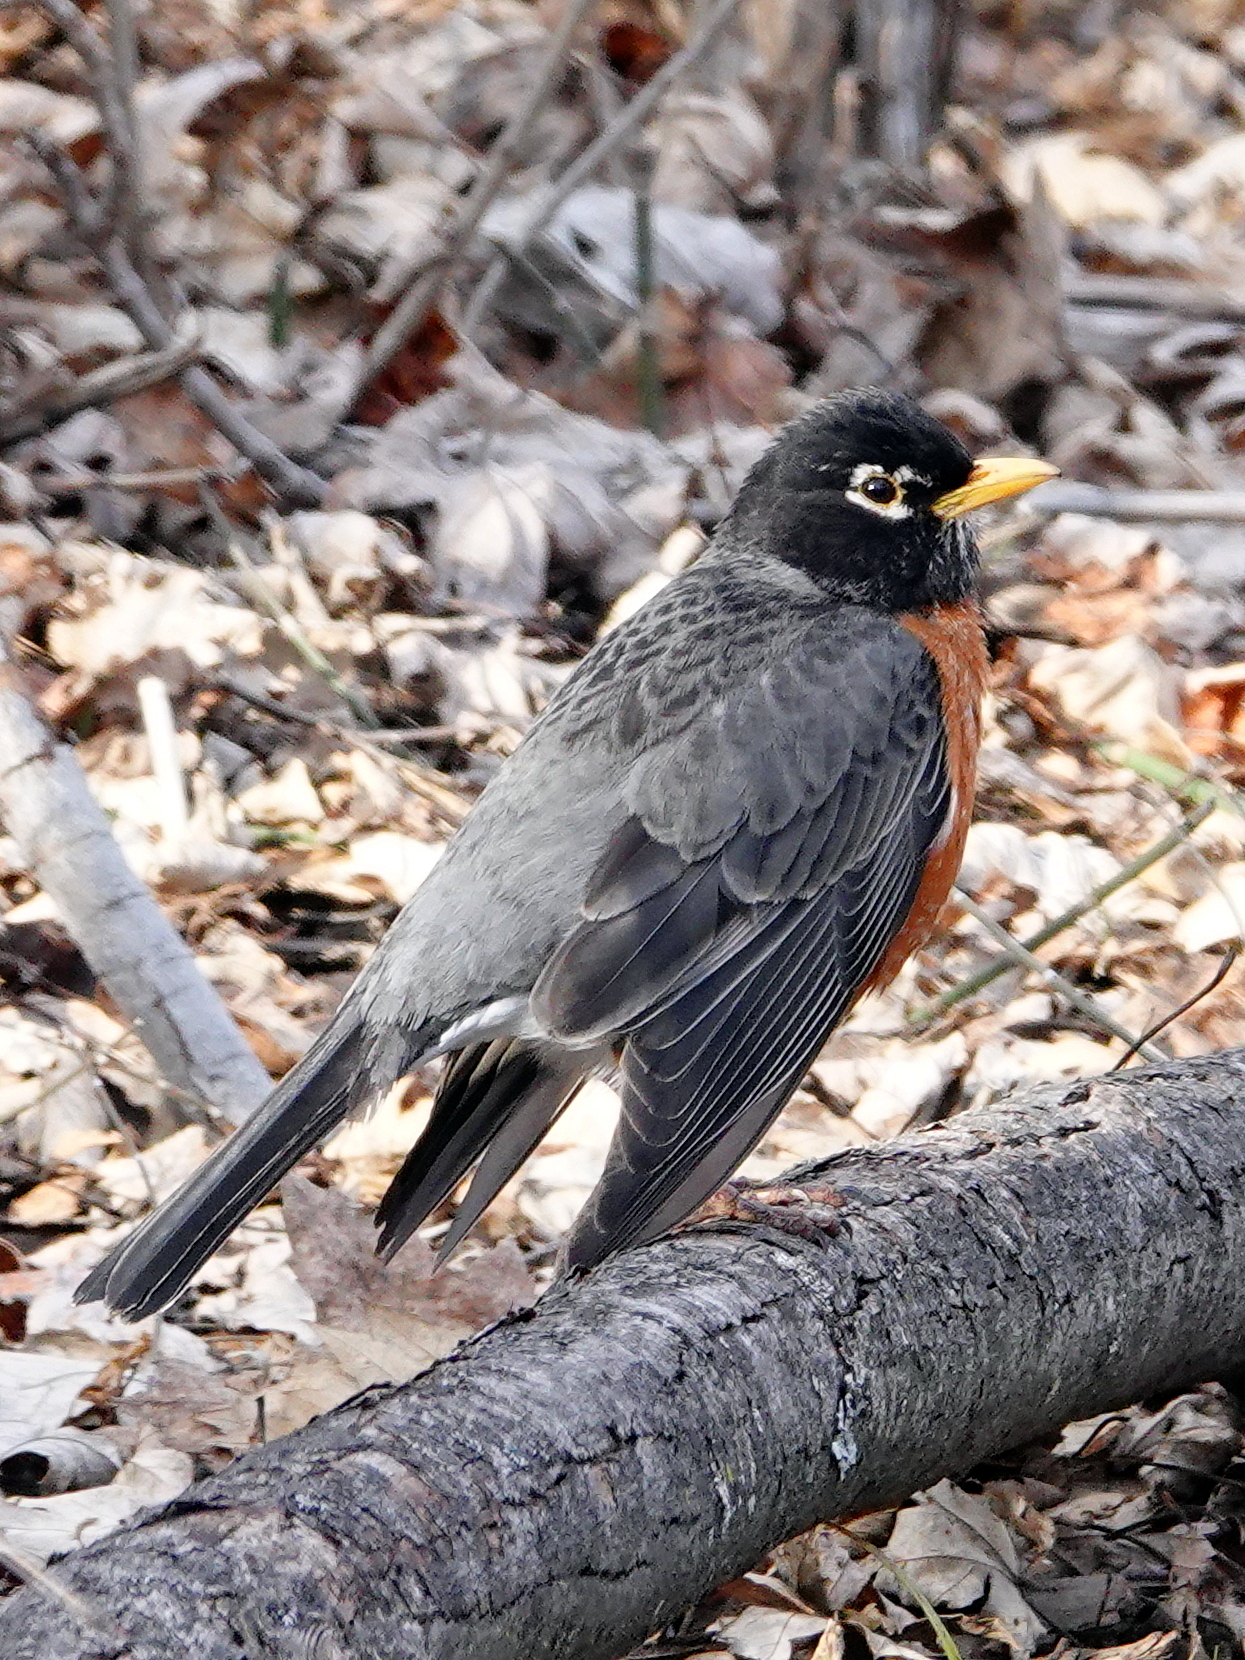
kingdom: Animalia
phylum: Chordata
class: Aves
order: Passeriformes
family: Turdidae
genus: Turdus
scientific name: Turdus migratorius
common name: American robin
